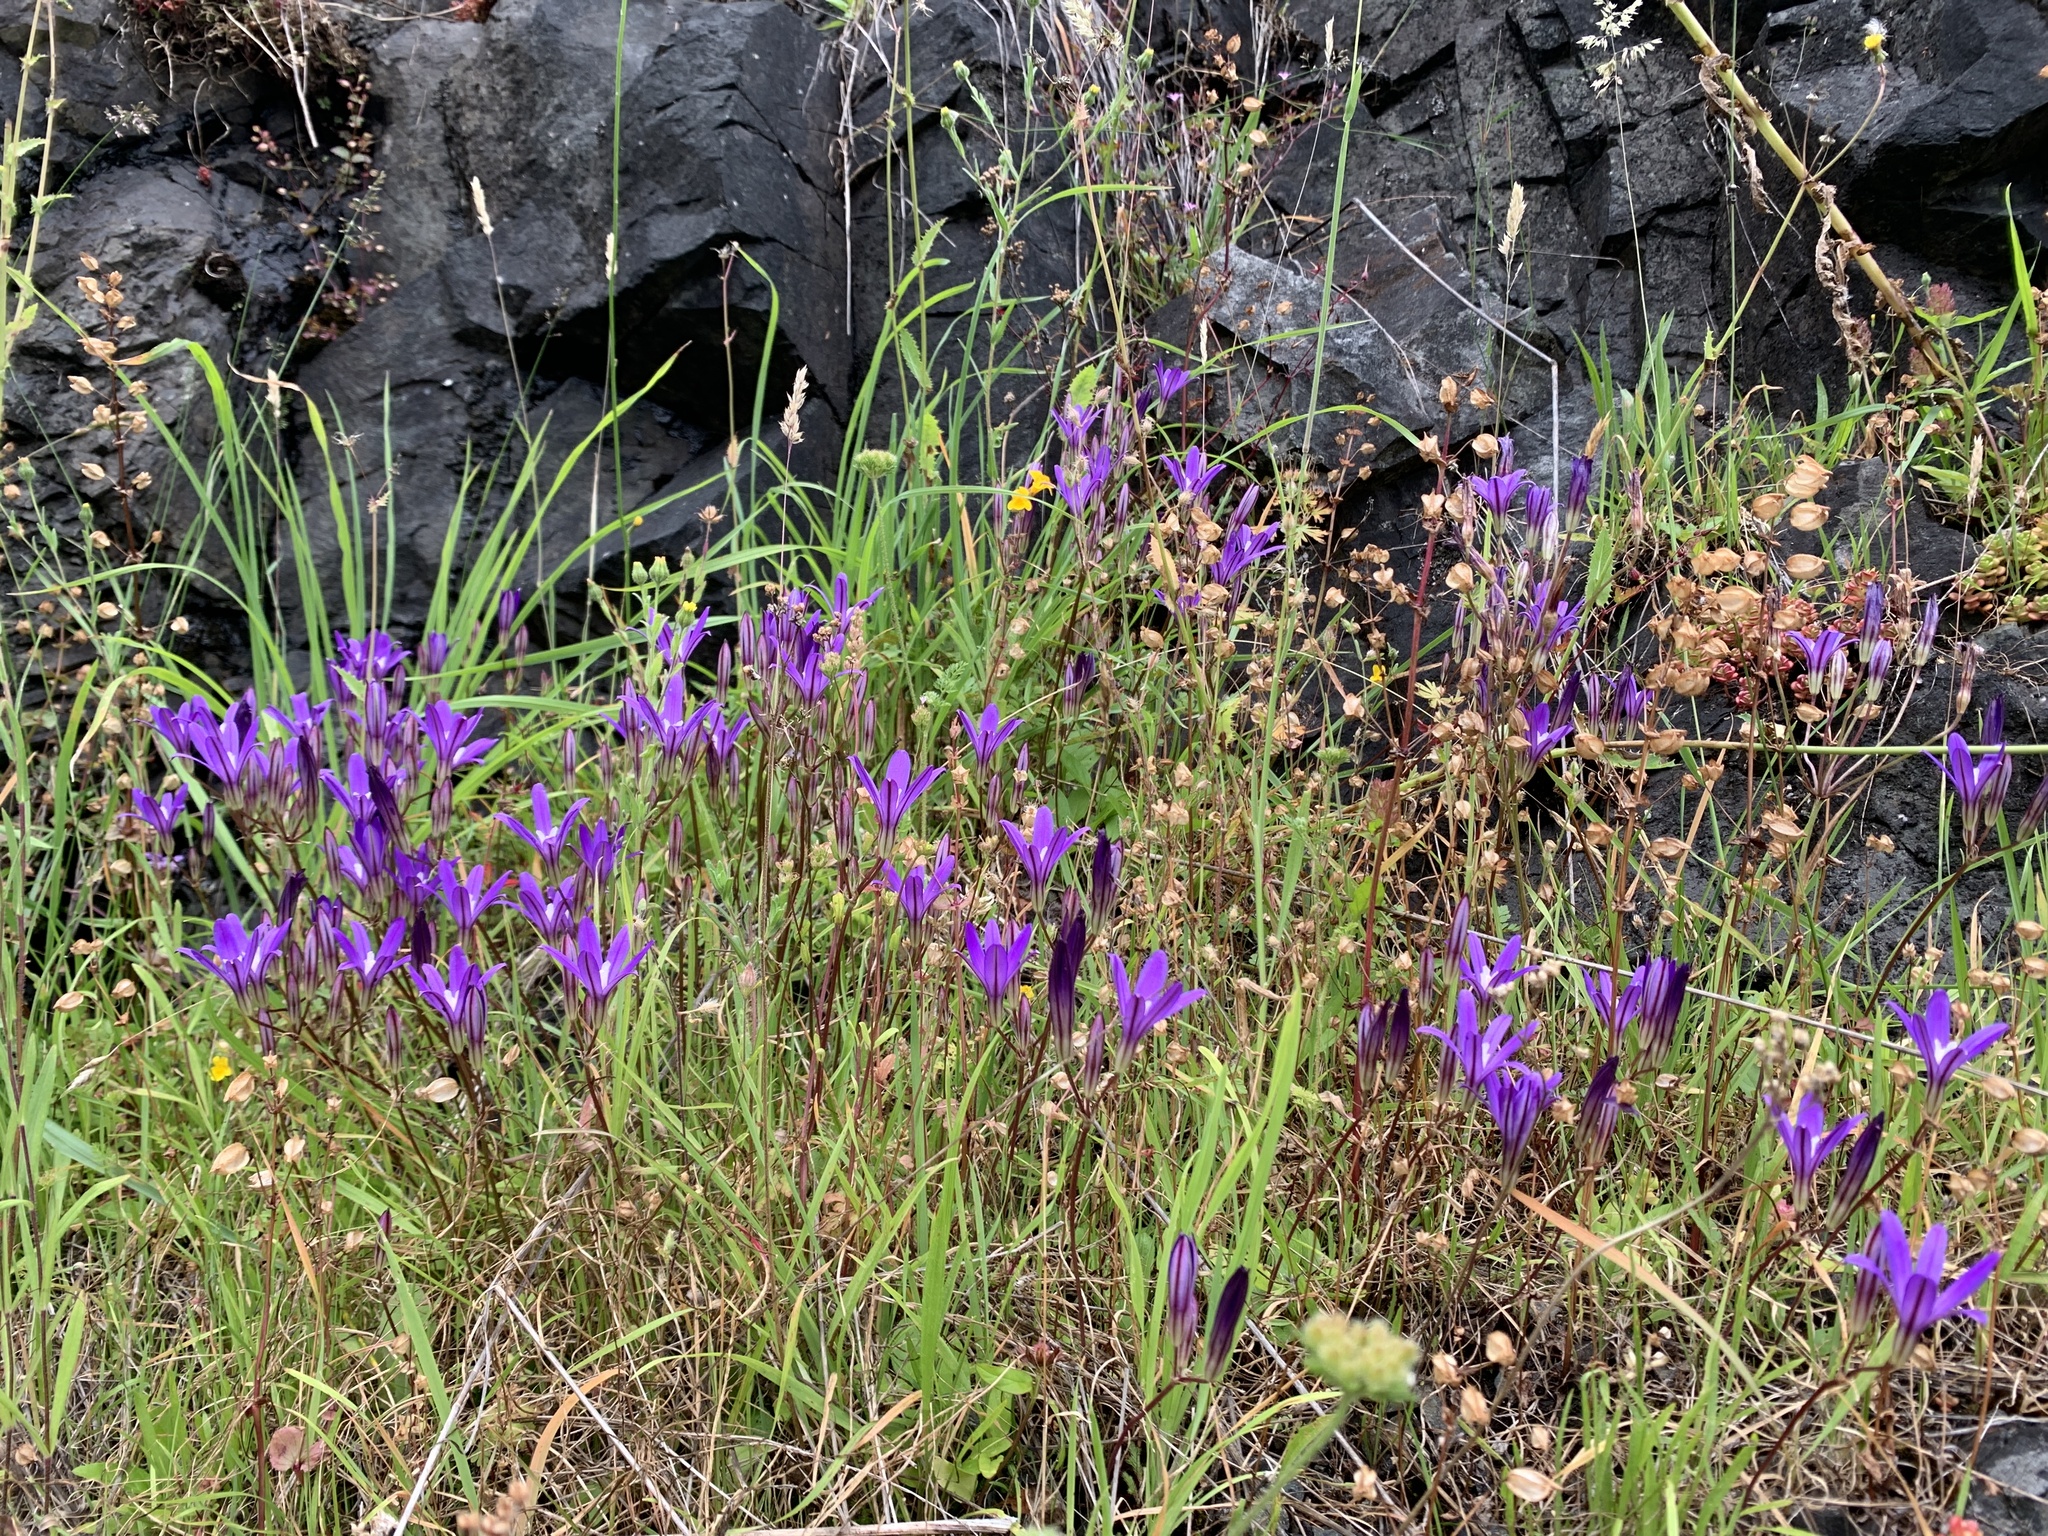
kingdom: Plantae
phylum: Tracheophyta
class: Liliopsida
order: Asparagales
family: Asparagaceae
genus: Brodiaea
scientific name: Brodiaea coronaria
